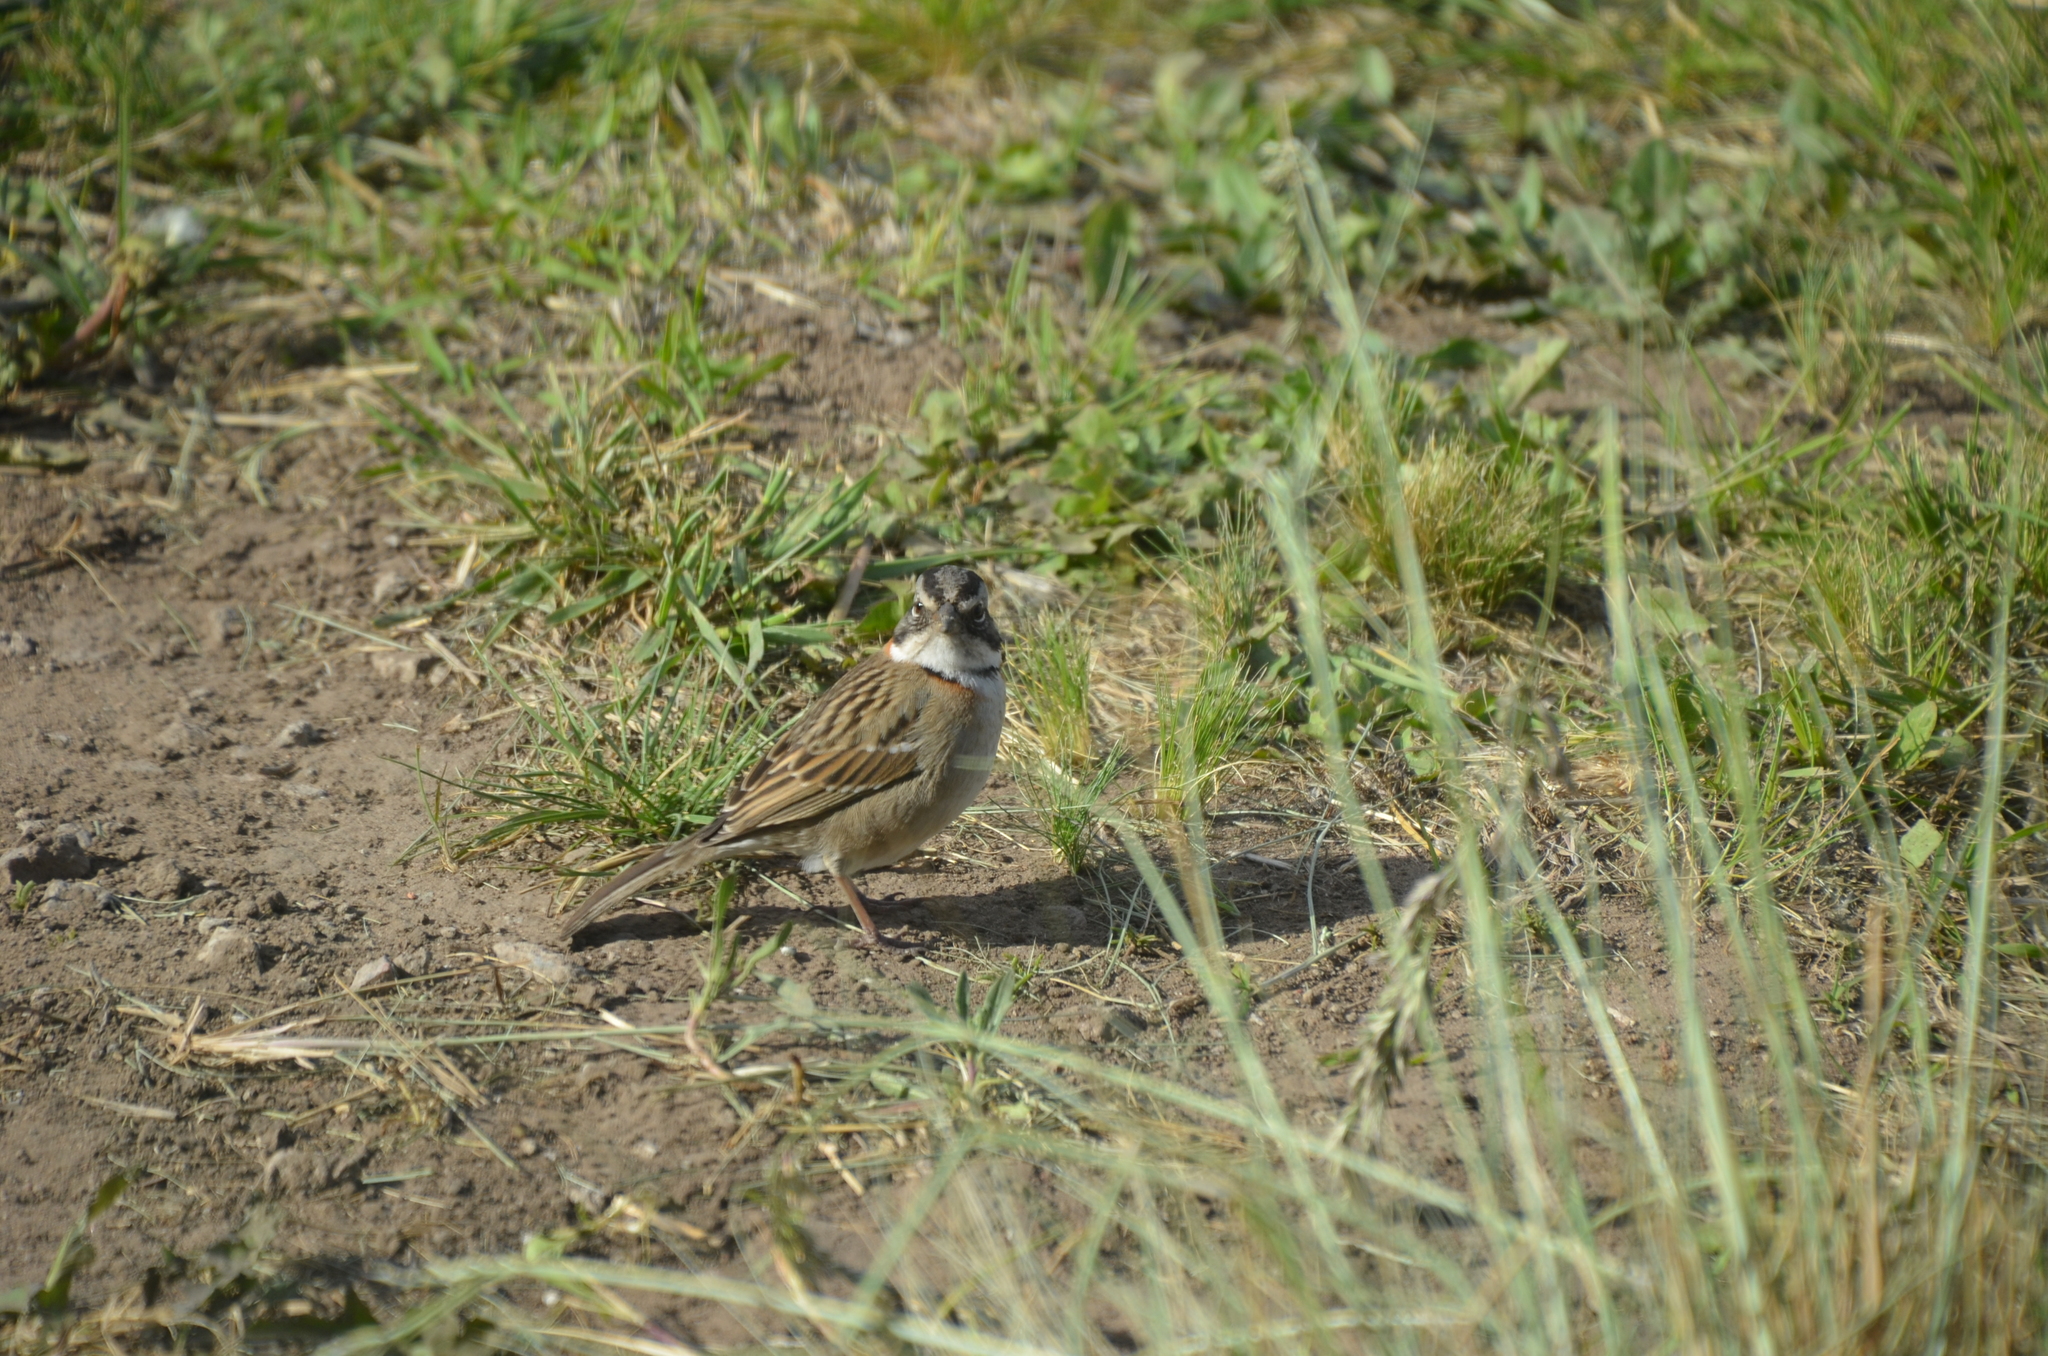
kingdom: Animalia
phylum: Chordata
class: Aves
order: Passeriformes
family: Passerellidae
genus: Zonotrichia
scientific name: Zonotrichia capensis
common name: Rufous-collared sparrow
